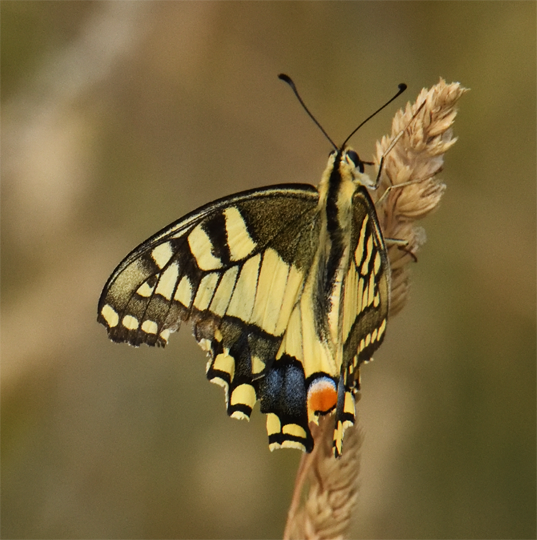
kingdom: Animalia
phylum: Arthropoda
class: Insecta
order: Lepidoptera
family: Papilionidae
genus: Papilio
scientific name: Papilio machaon
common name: Swallowtail
